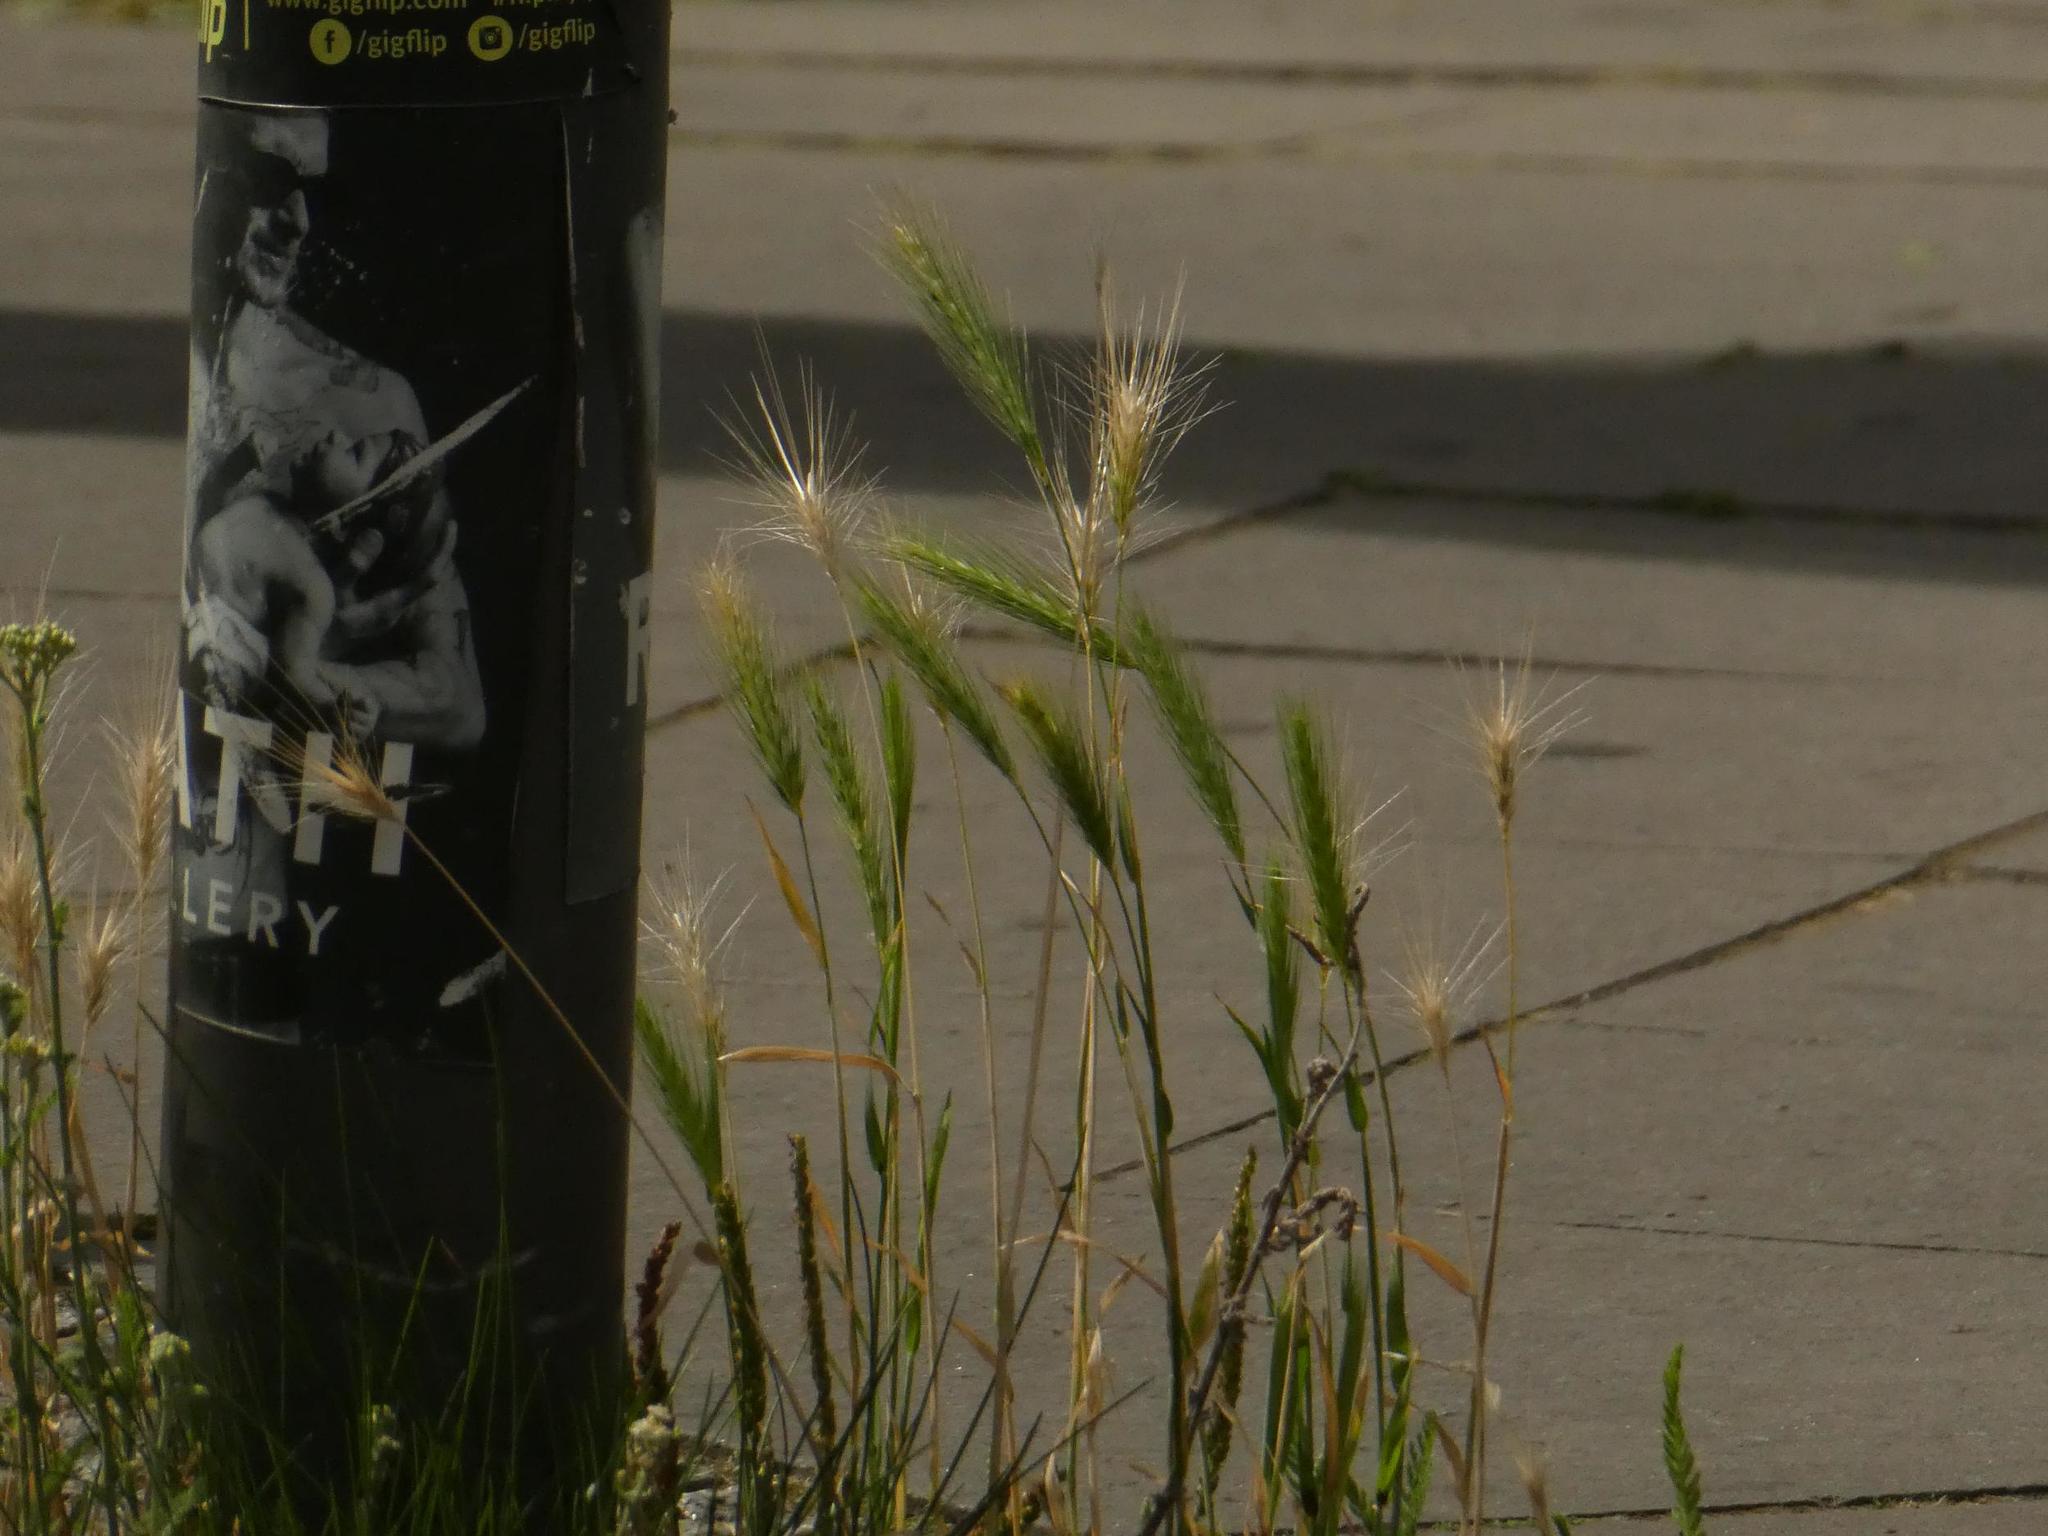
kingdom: Plantae
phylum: Tracheophyta
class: Liliopsida
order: Poales
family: Poaceae
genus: Hordeum
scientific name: Hordeum murinum
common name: Wall barley
